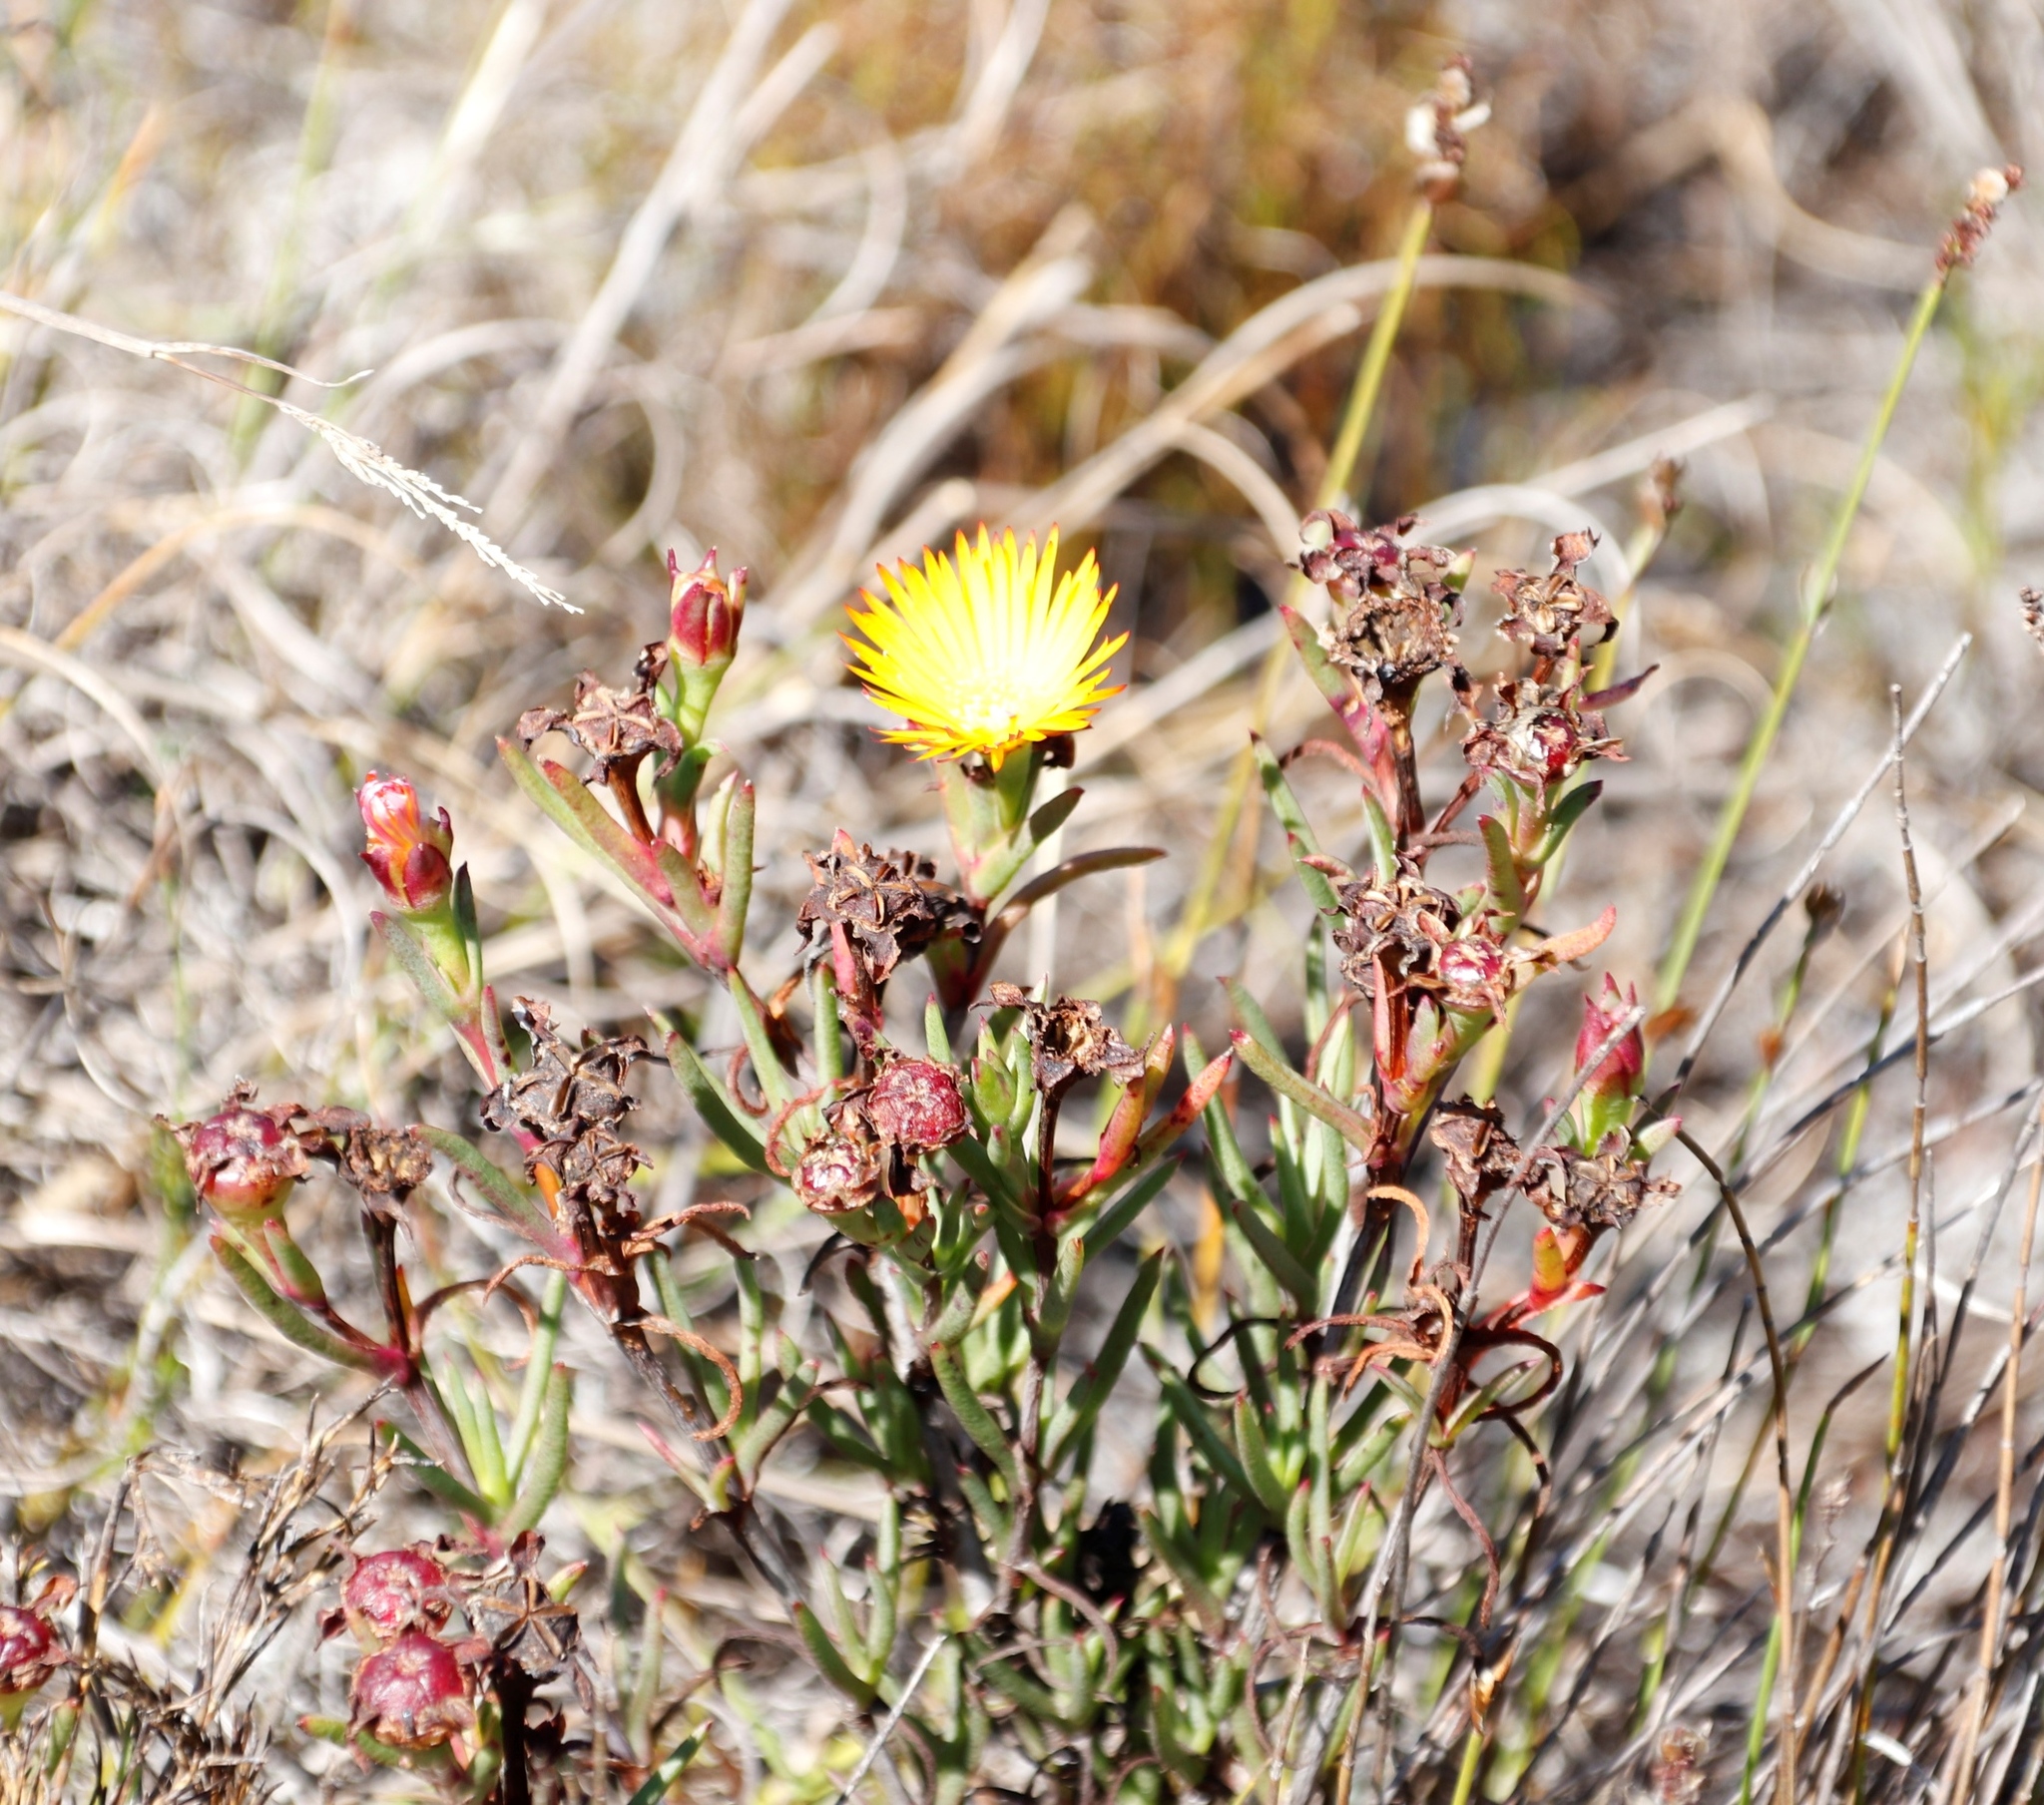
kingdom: Plantae
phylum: Tracheophyta
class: Magnoliopsida
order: Caryophyllales
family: Aizoaceae
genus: Lampranthus
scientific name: Lampranthus bicolor
